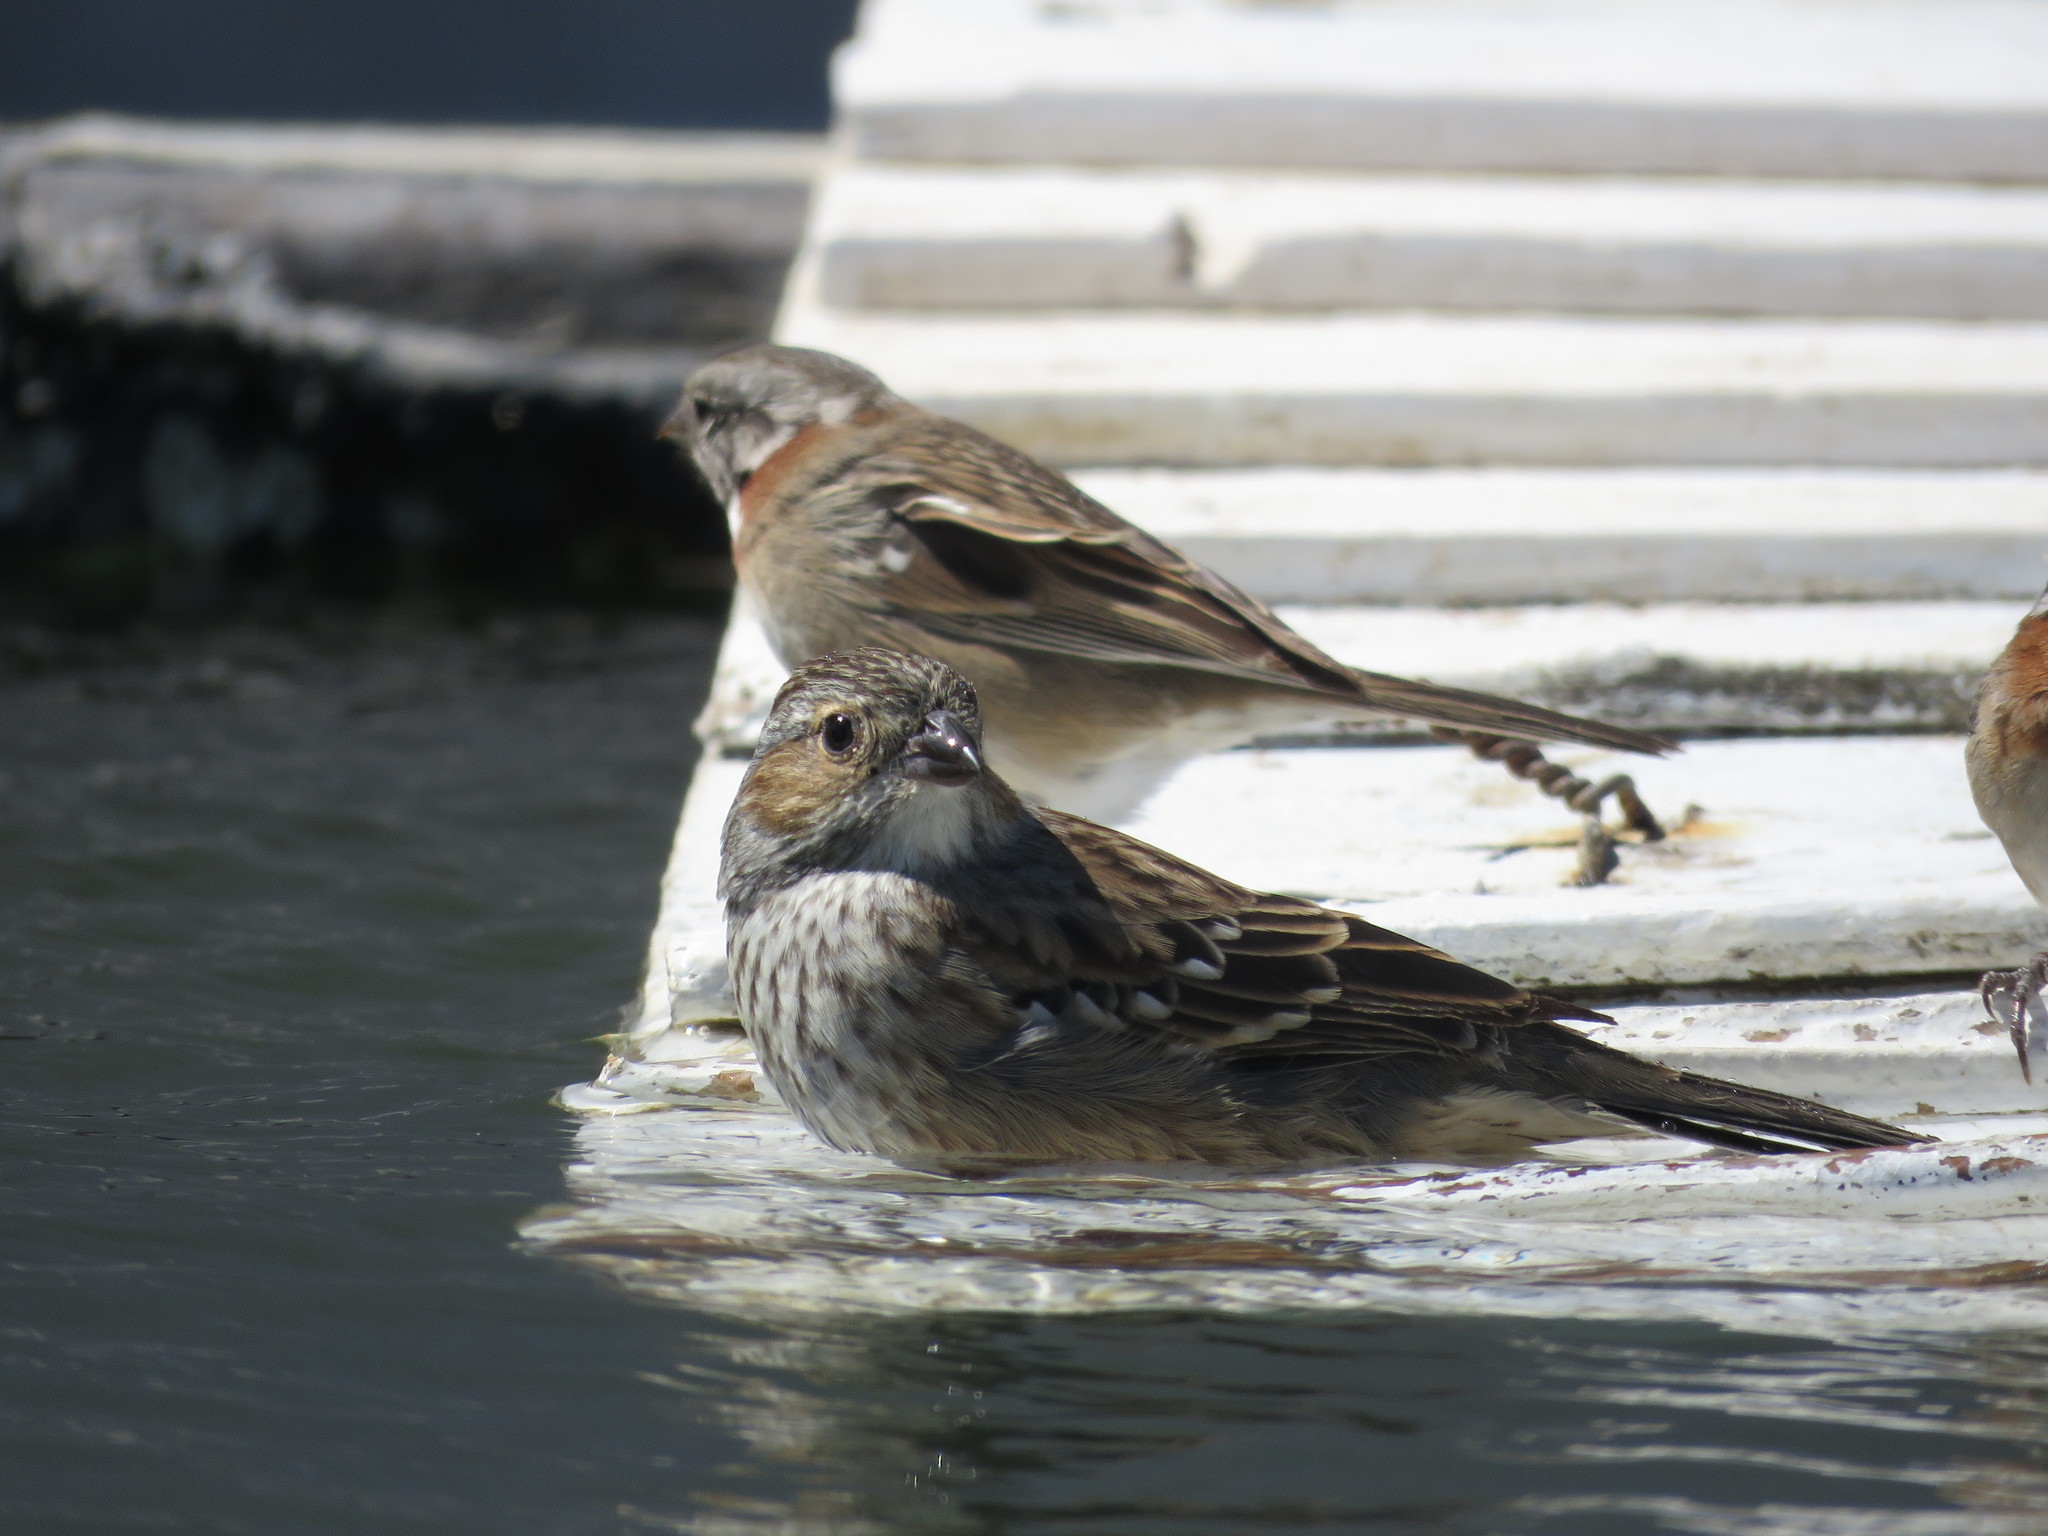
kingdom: Animalia
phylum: Chordata
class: Aves
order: Passeriformes
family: Thraupidae
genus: Rhopospina
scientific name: Rhopospina fruticeti
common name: Mourning sierra finch
